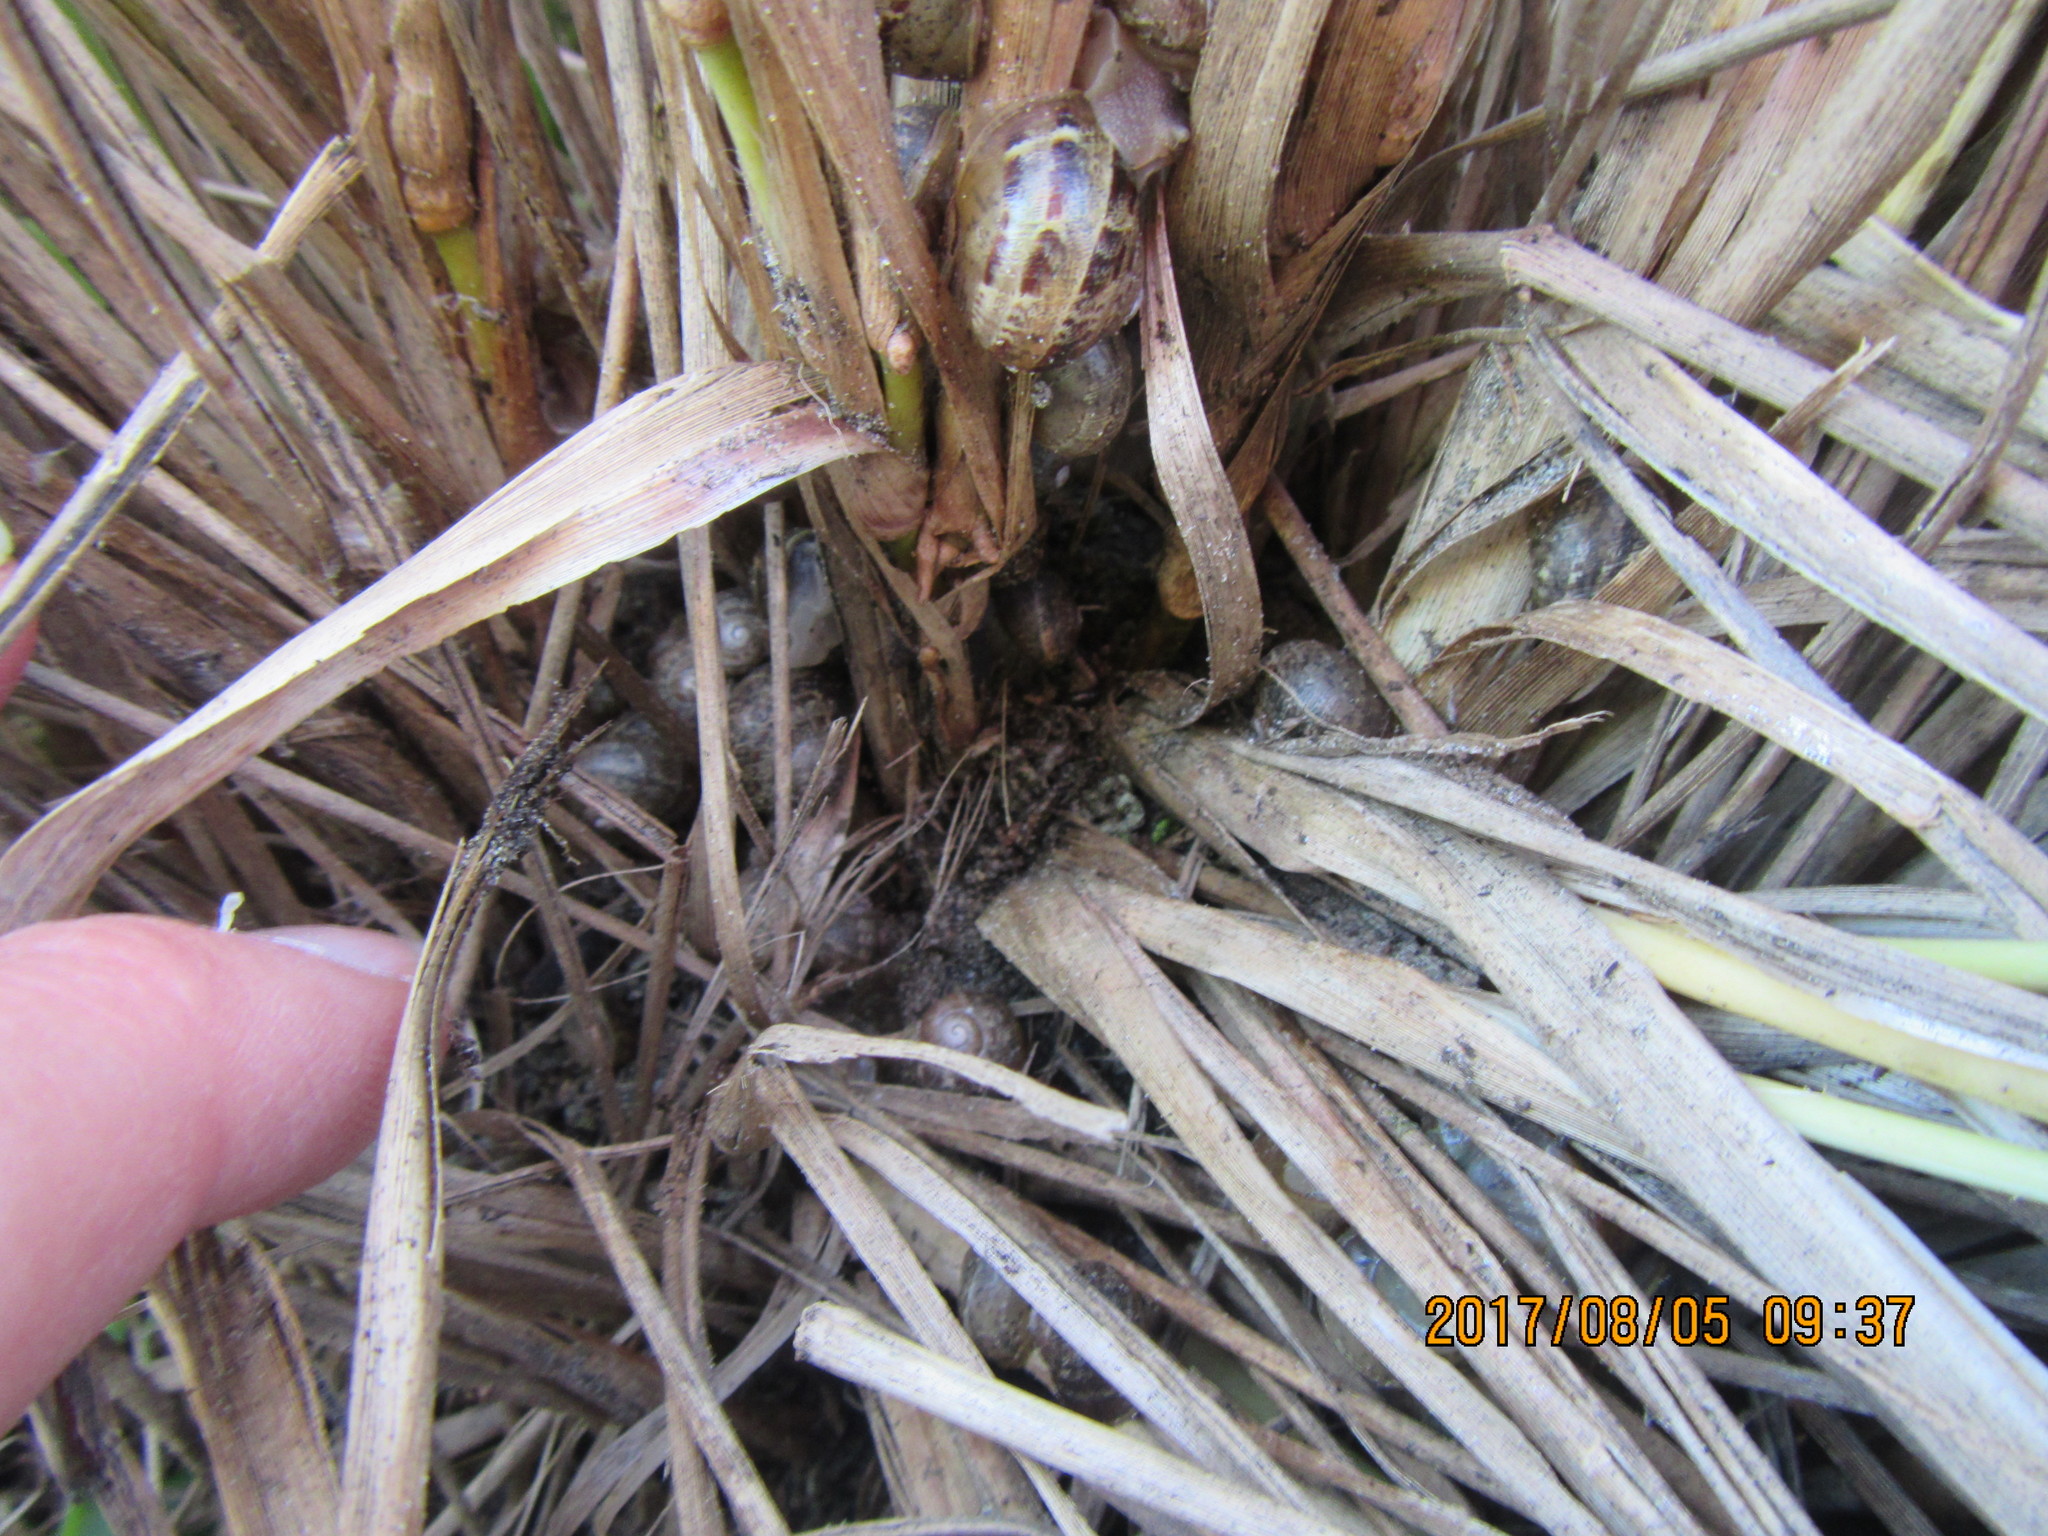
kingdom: Animalia
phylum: Mollusca
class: Gastropoda
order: Stylommatophora
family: Helicidae
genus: Cornu
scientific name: Cornu aspersum
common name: Brown garden snail
